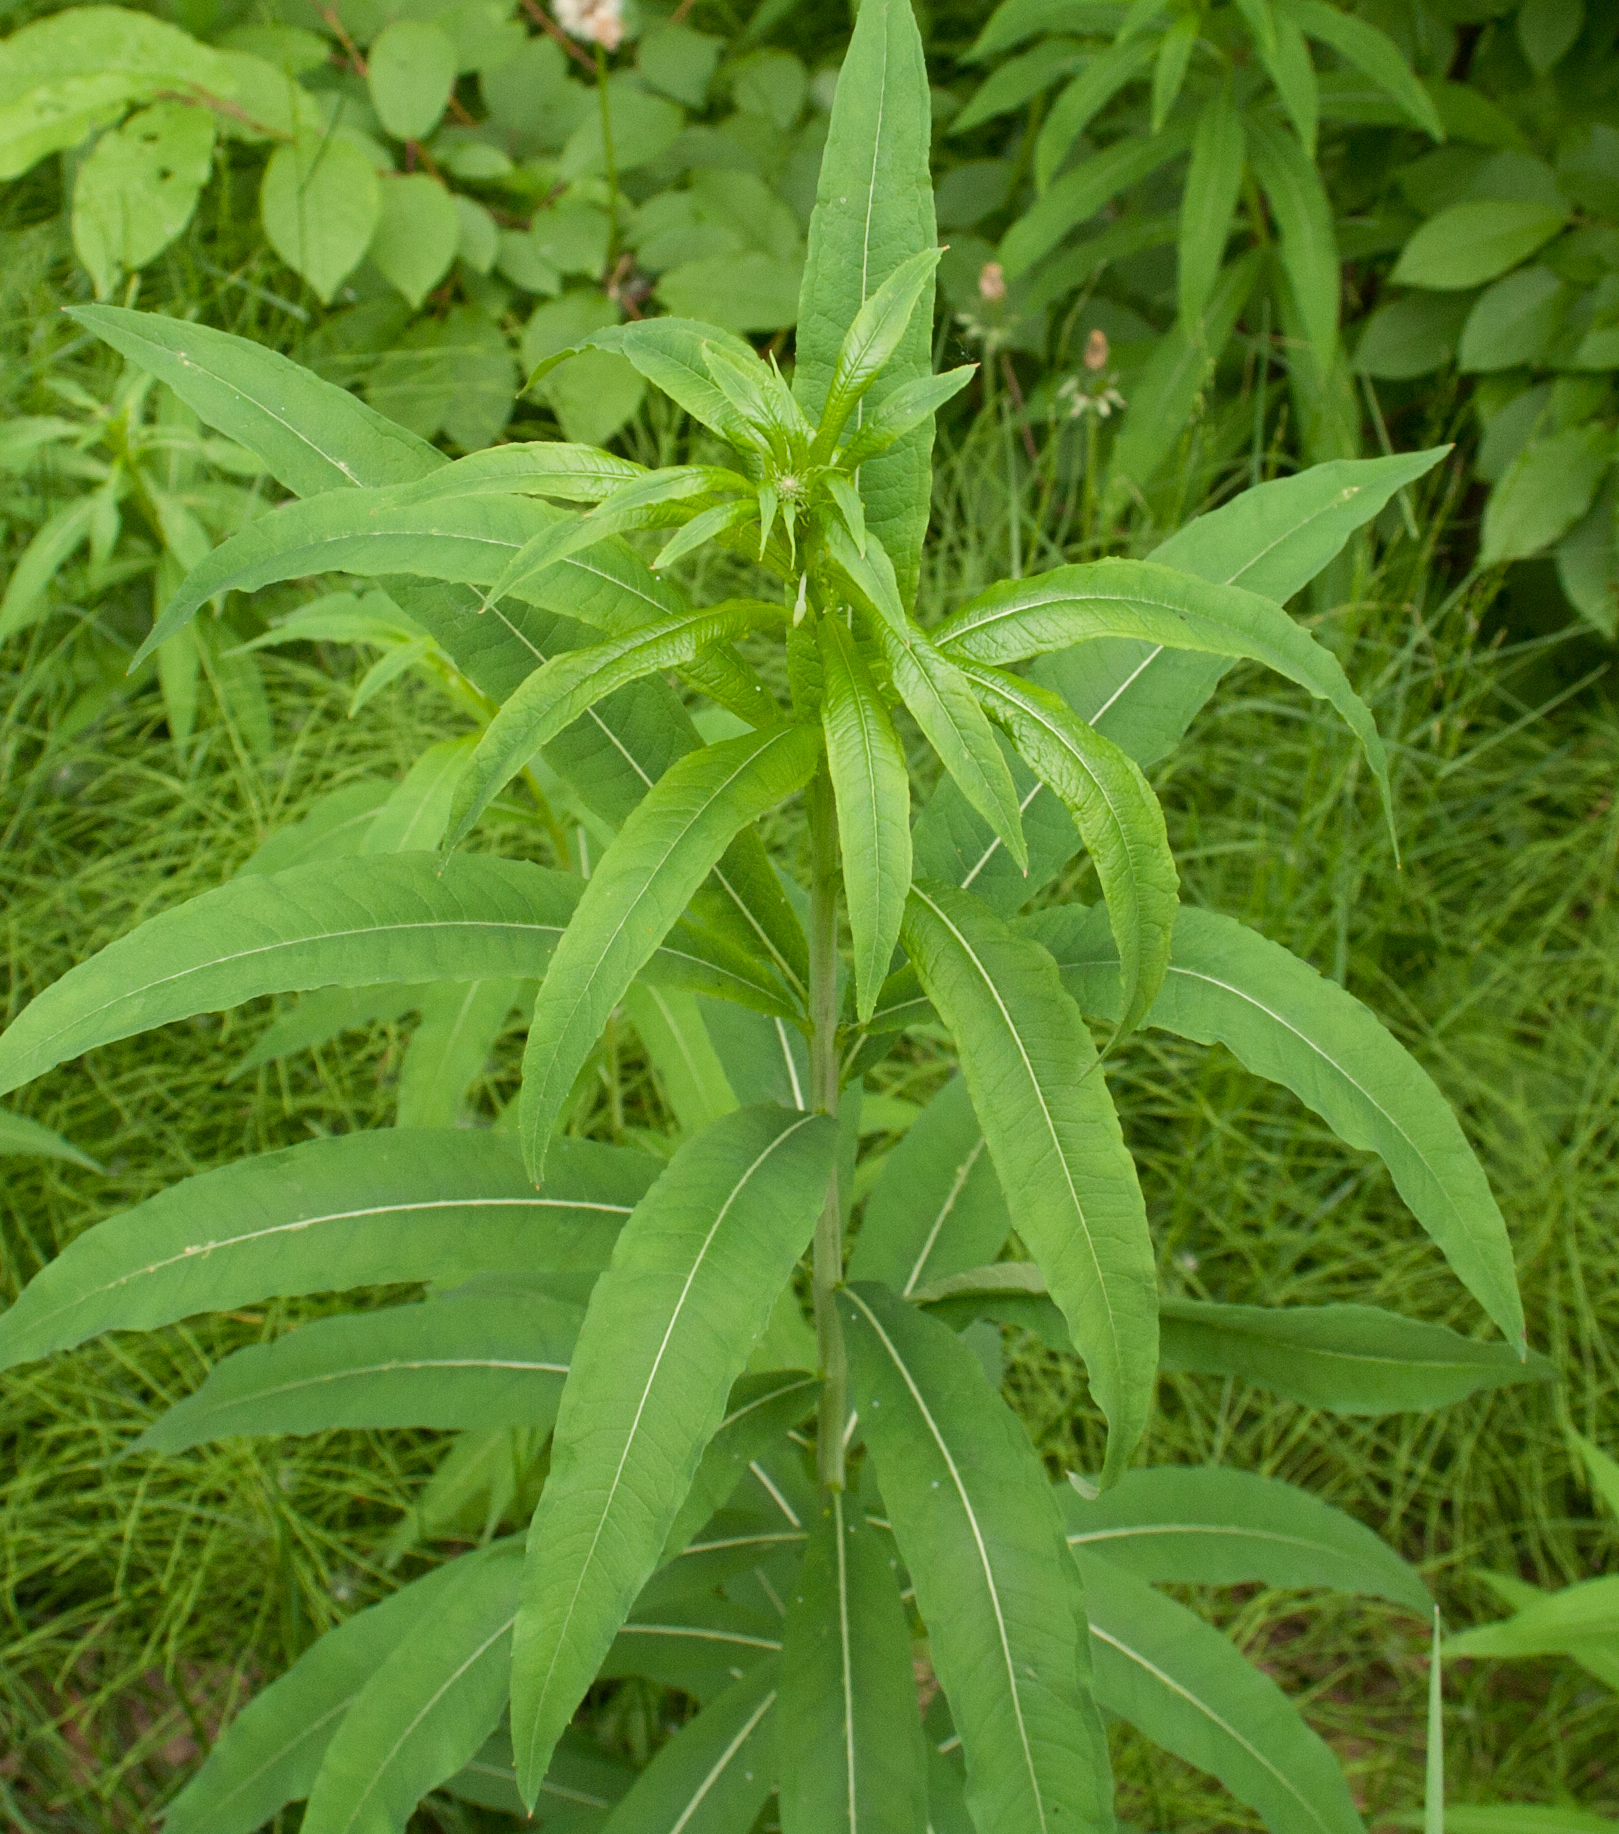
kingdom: Plantae
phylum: Tracheophyta
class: Magnoliopsida
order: Myrtales
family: Onagraceae
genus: Chamaenerion
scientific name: Chamaenerion angustifolium
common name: Fireweed
